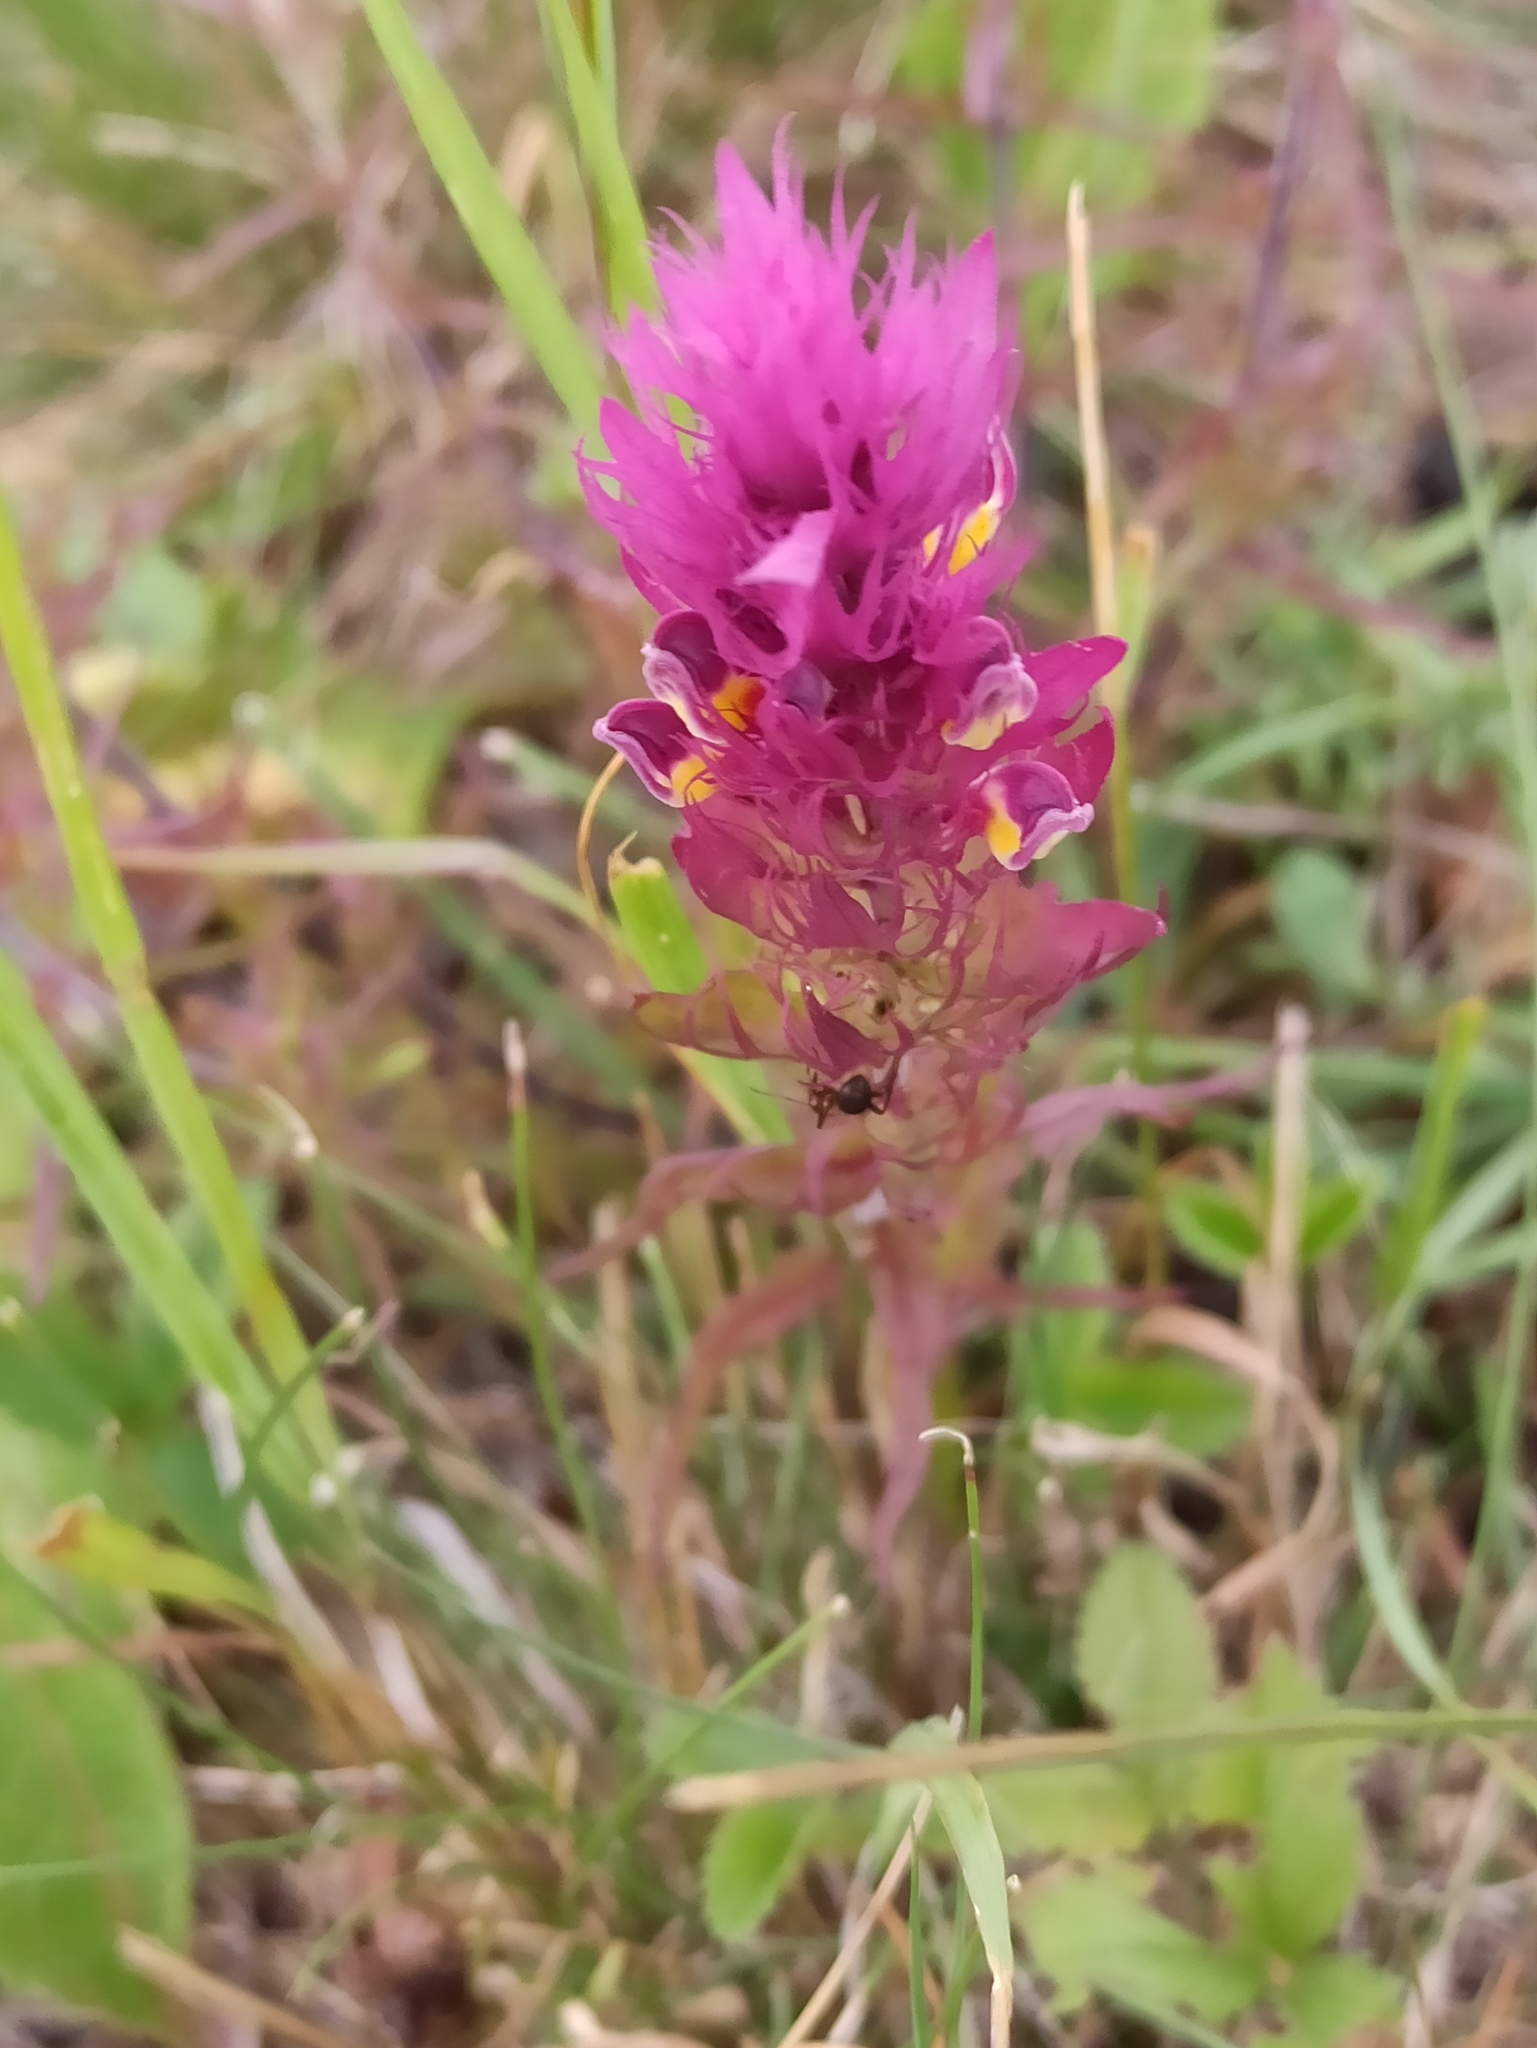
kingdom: Plantae
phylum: Tracheophyta
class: Magnoliopsida
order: Lamiales
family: Orobanchaceae
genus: Melampyrum
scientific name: Melampyrum arvense
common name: Field cow-wheat
